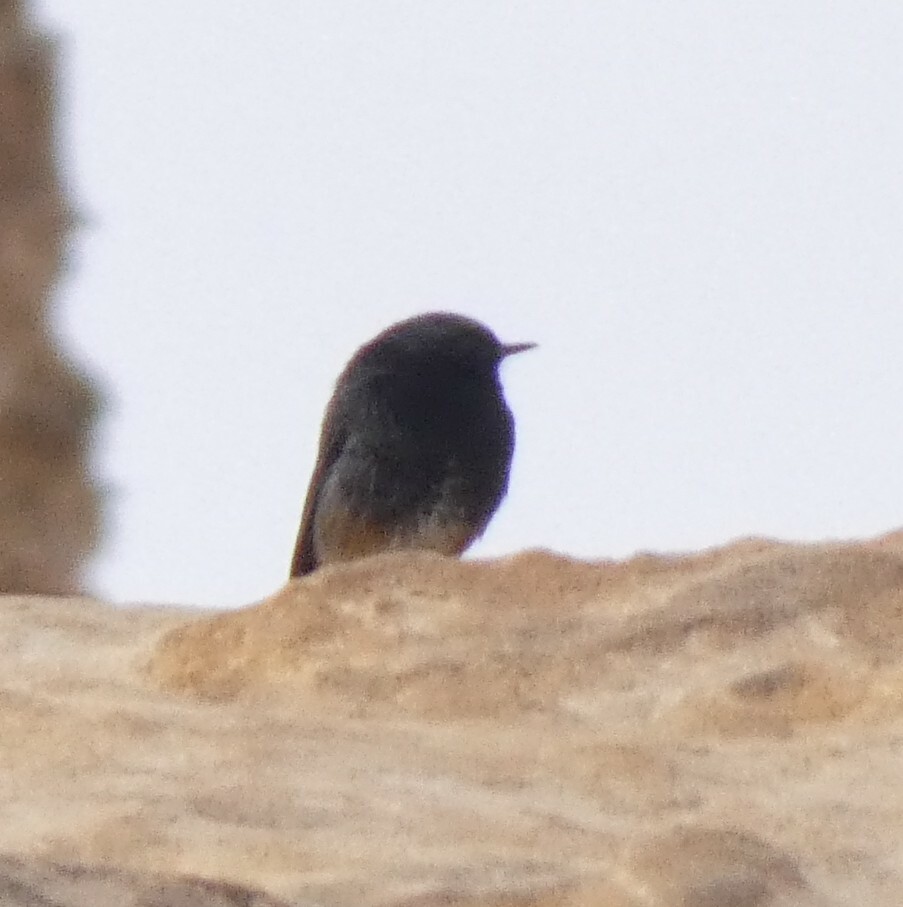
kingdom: Animalia
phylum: Chordata
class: Aves
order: Passeriformes
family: Muscicapidae
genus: Phoenicurus
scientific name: Phoenicurus ochruros
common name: Black redstart
